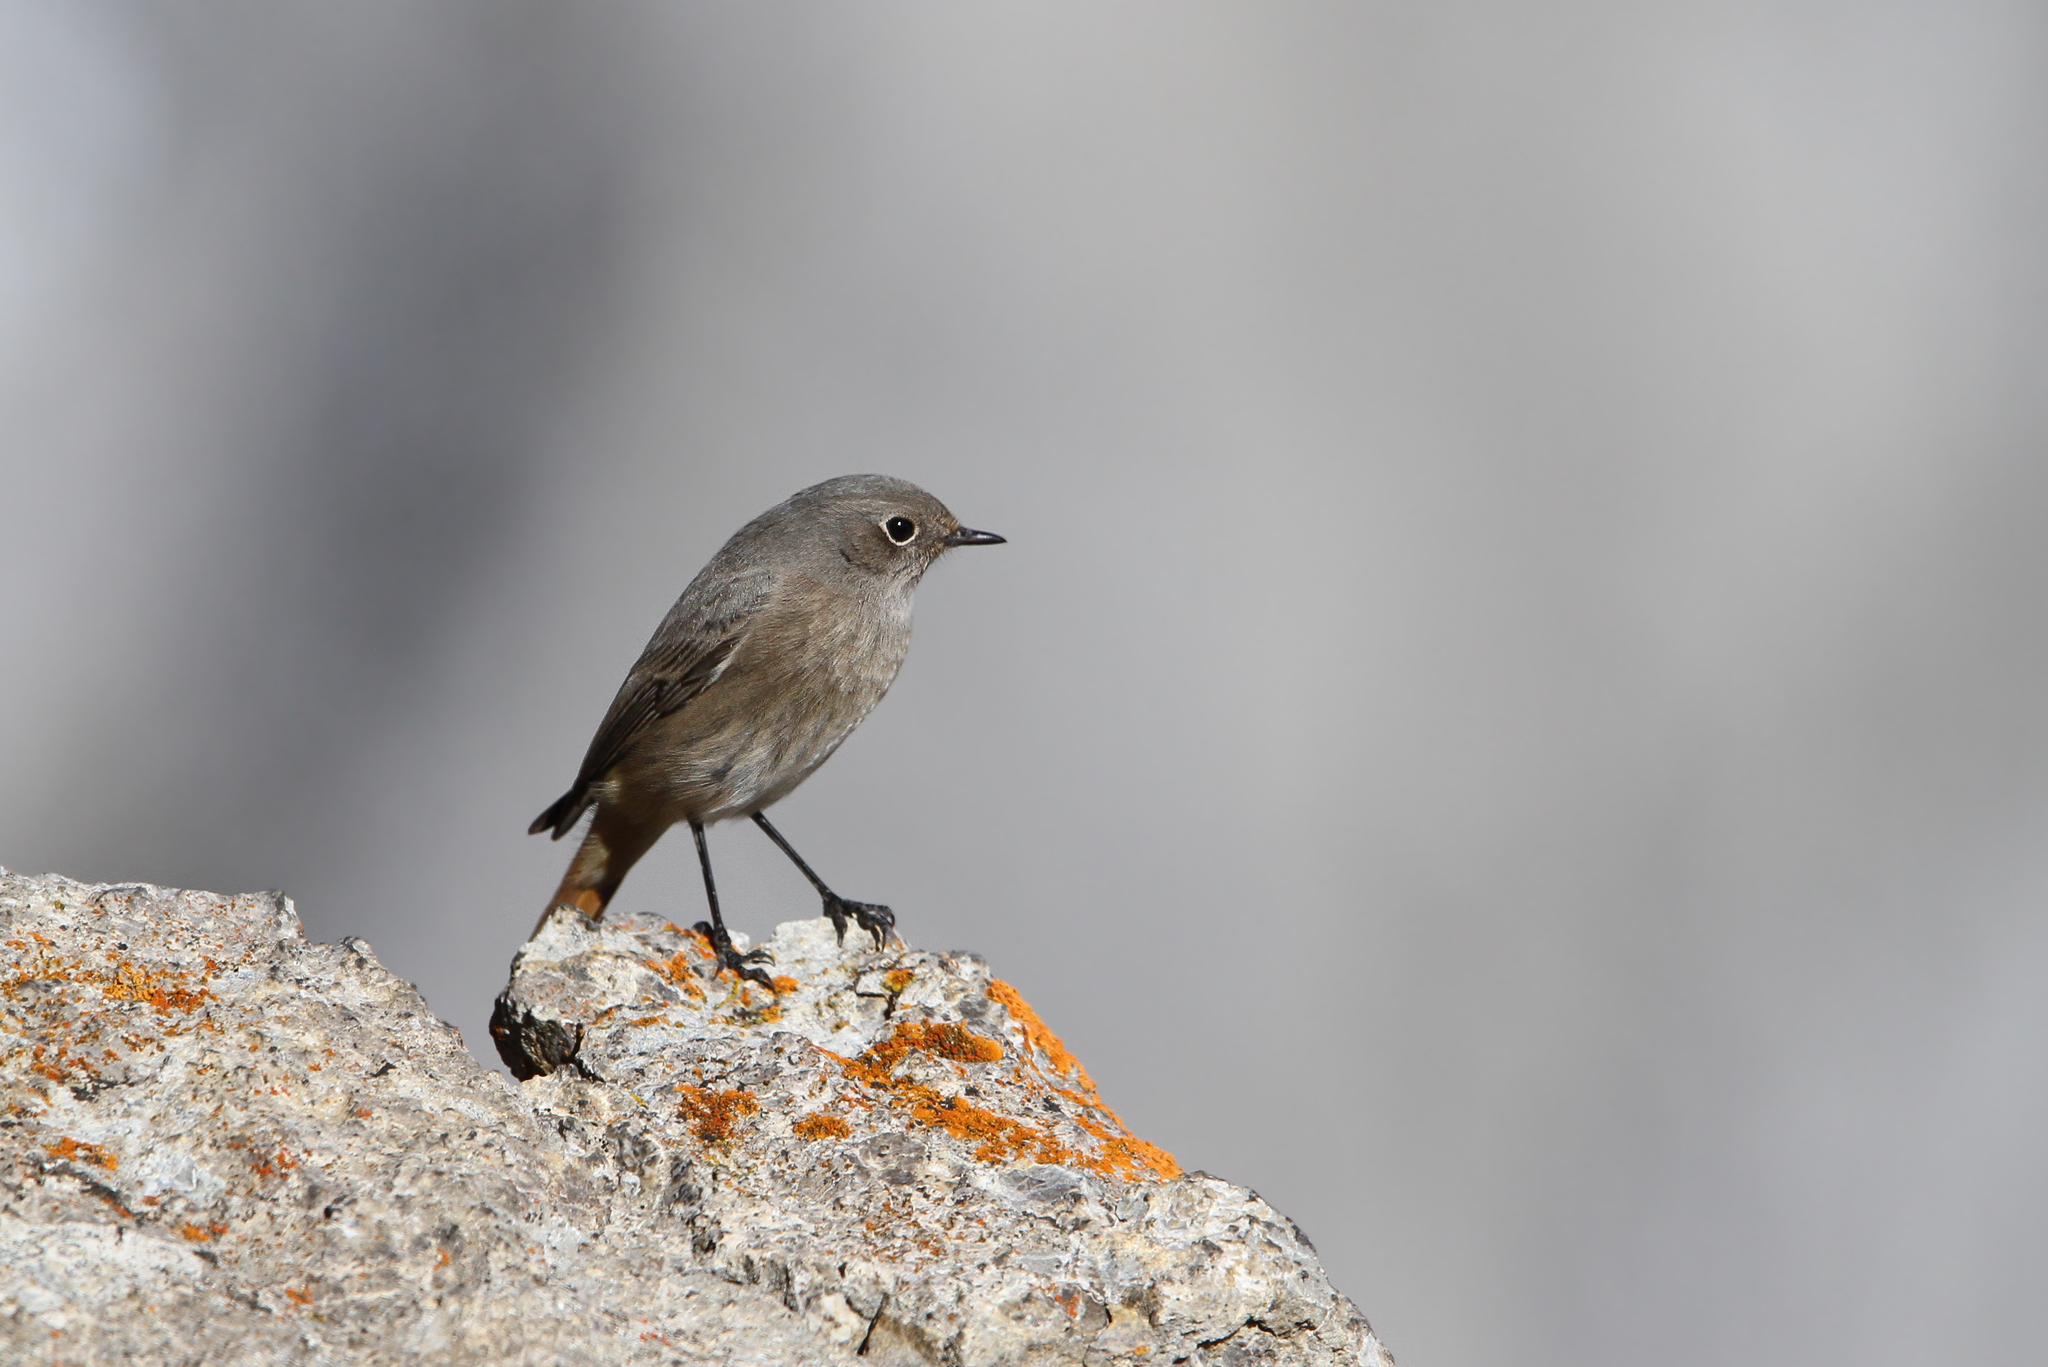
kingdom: Animalia
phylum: Chordata
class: Aves
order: Passeriformes
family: Muscicapidae
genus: Phoenicurus
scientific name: Phoenicurus ochruros
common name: Black redstart
